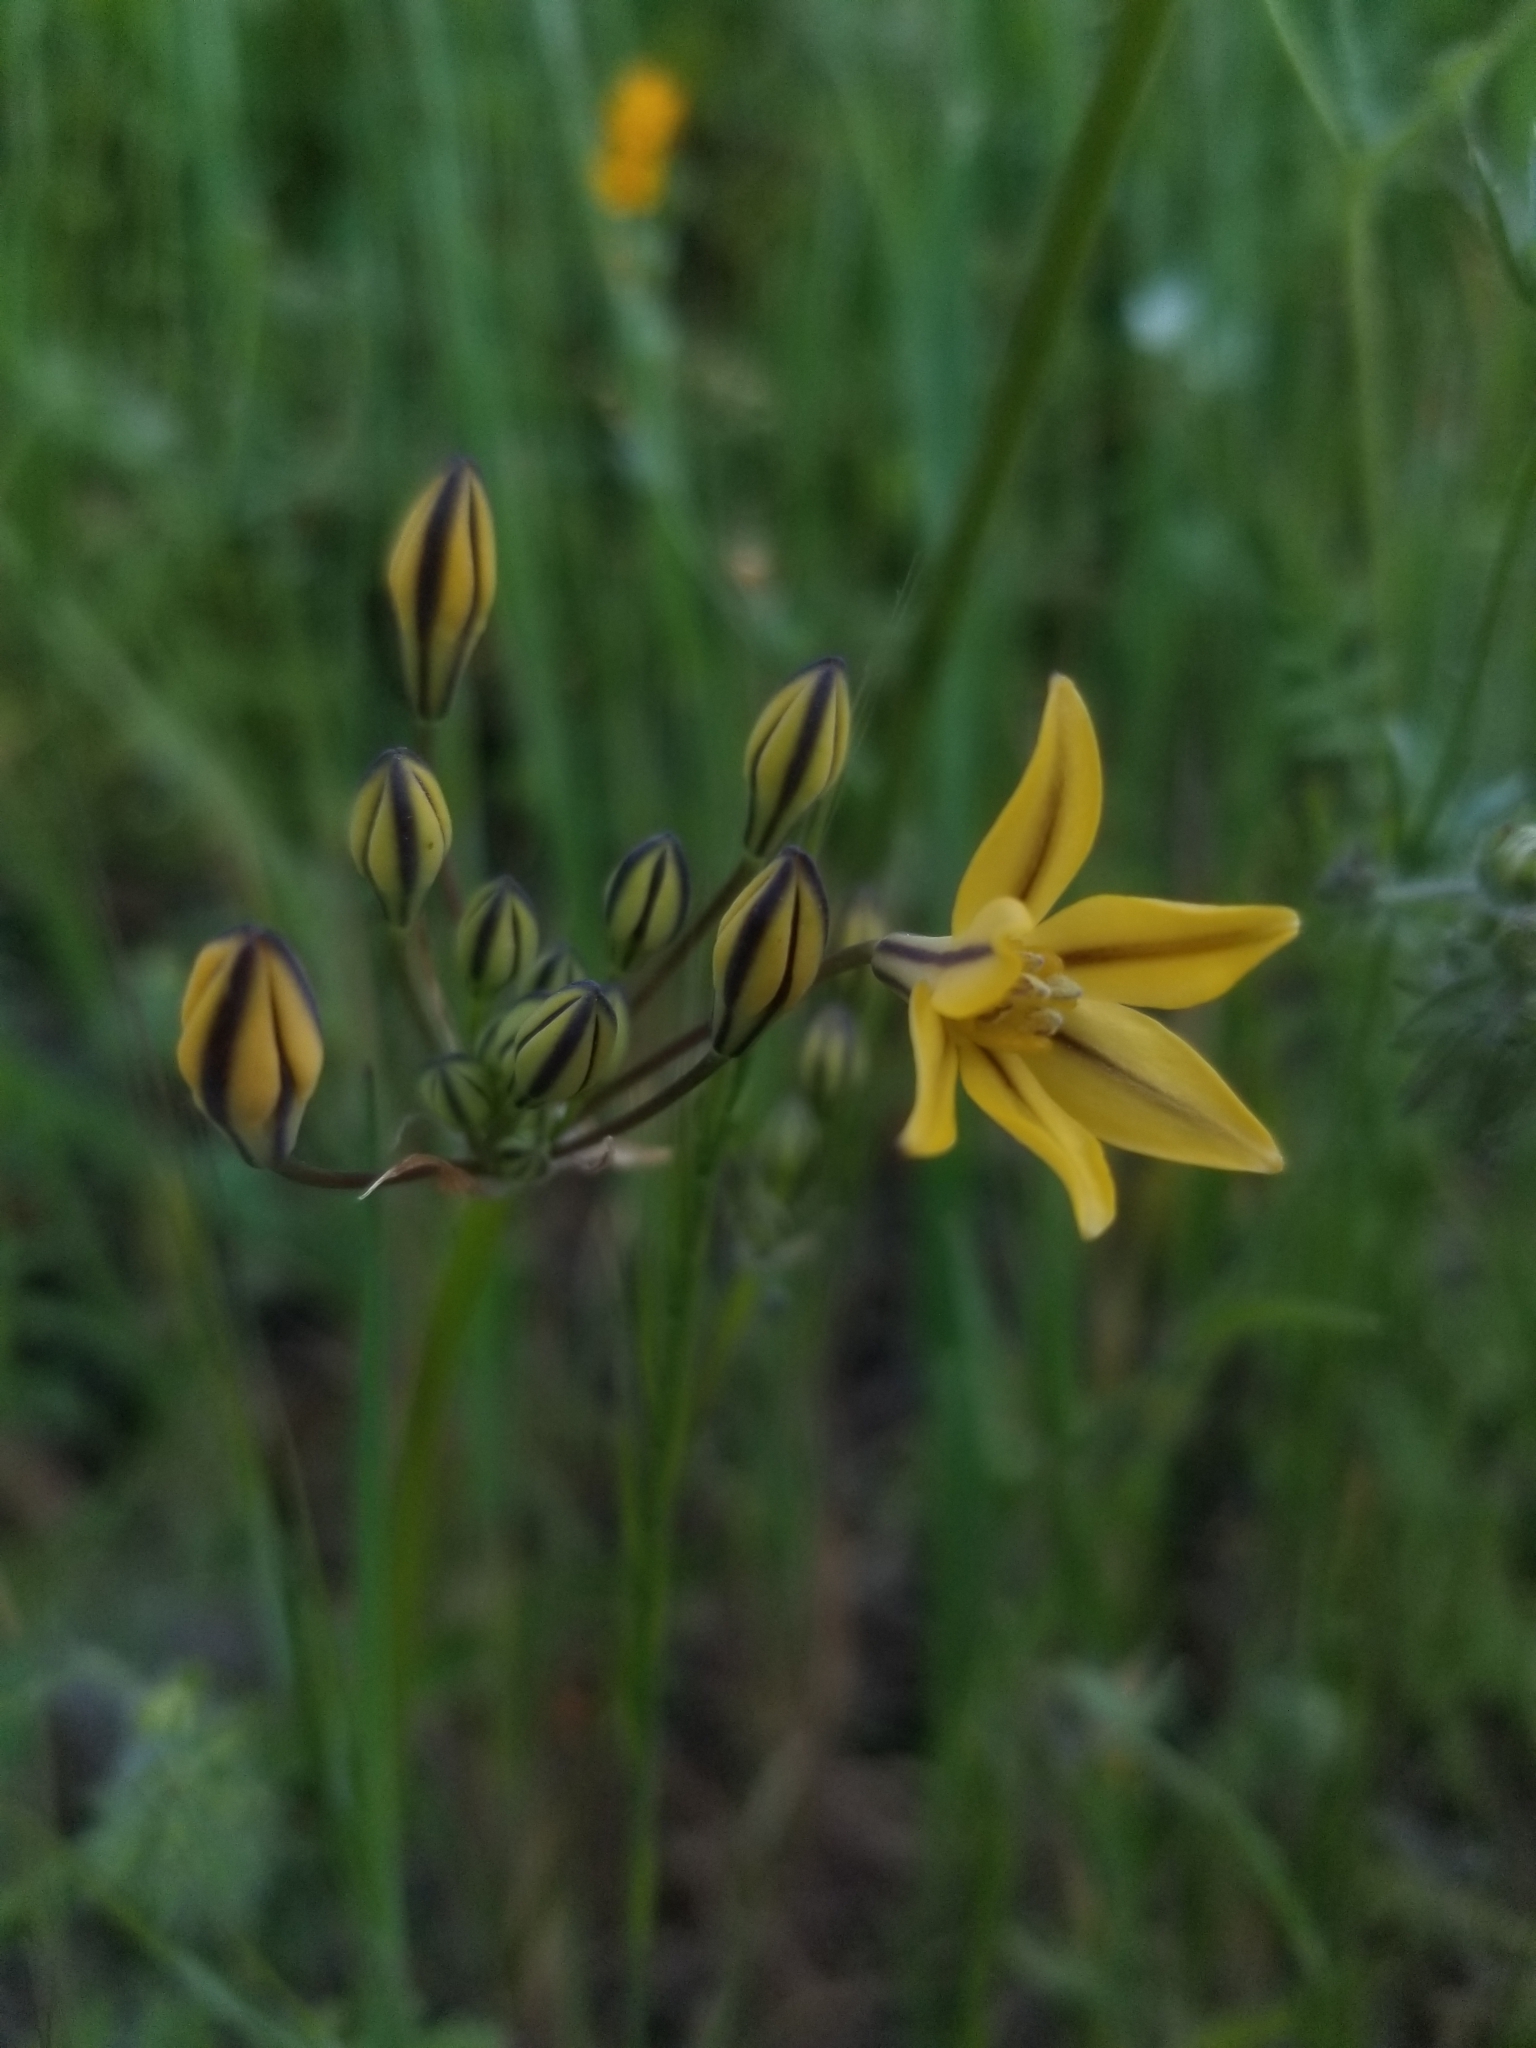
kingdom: Plantae
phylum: Tracheophyta
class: Liliopsida
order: Asparagales
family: Asparagaceae
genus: Triteleia
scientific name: Triteleia lugens
